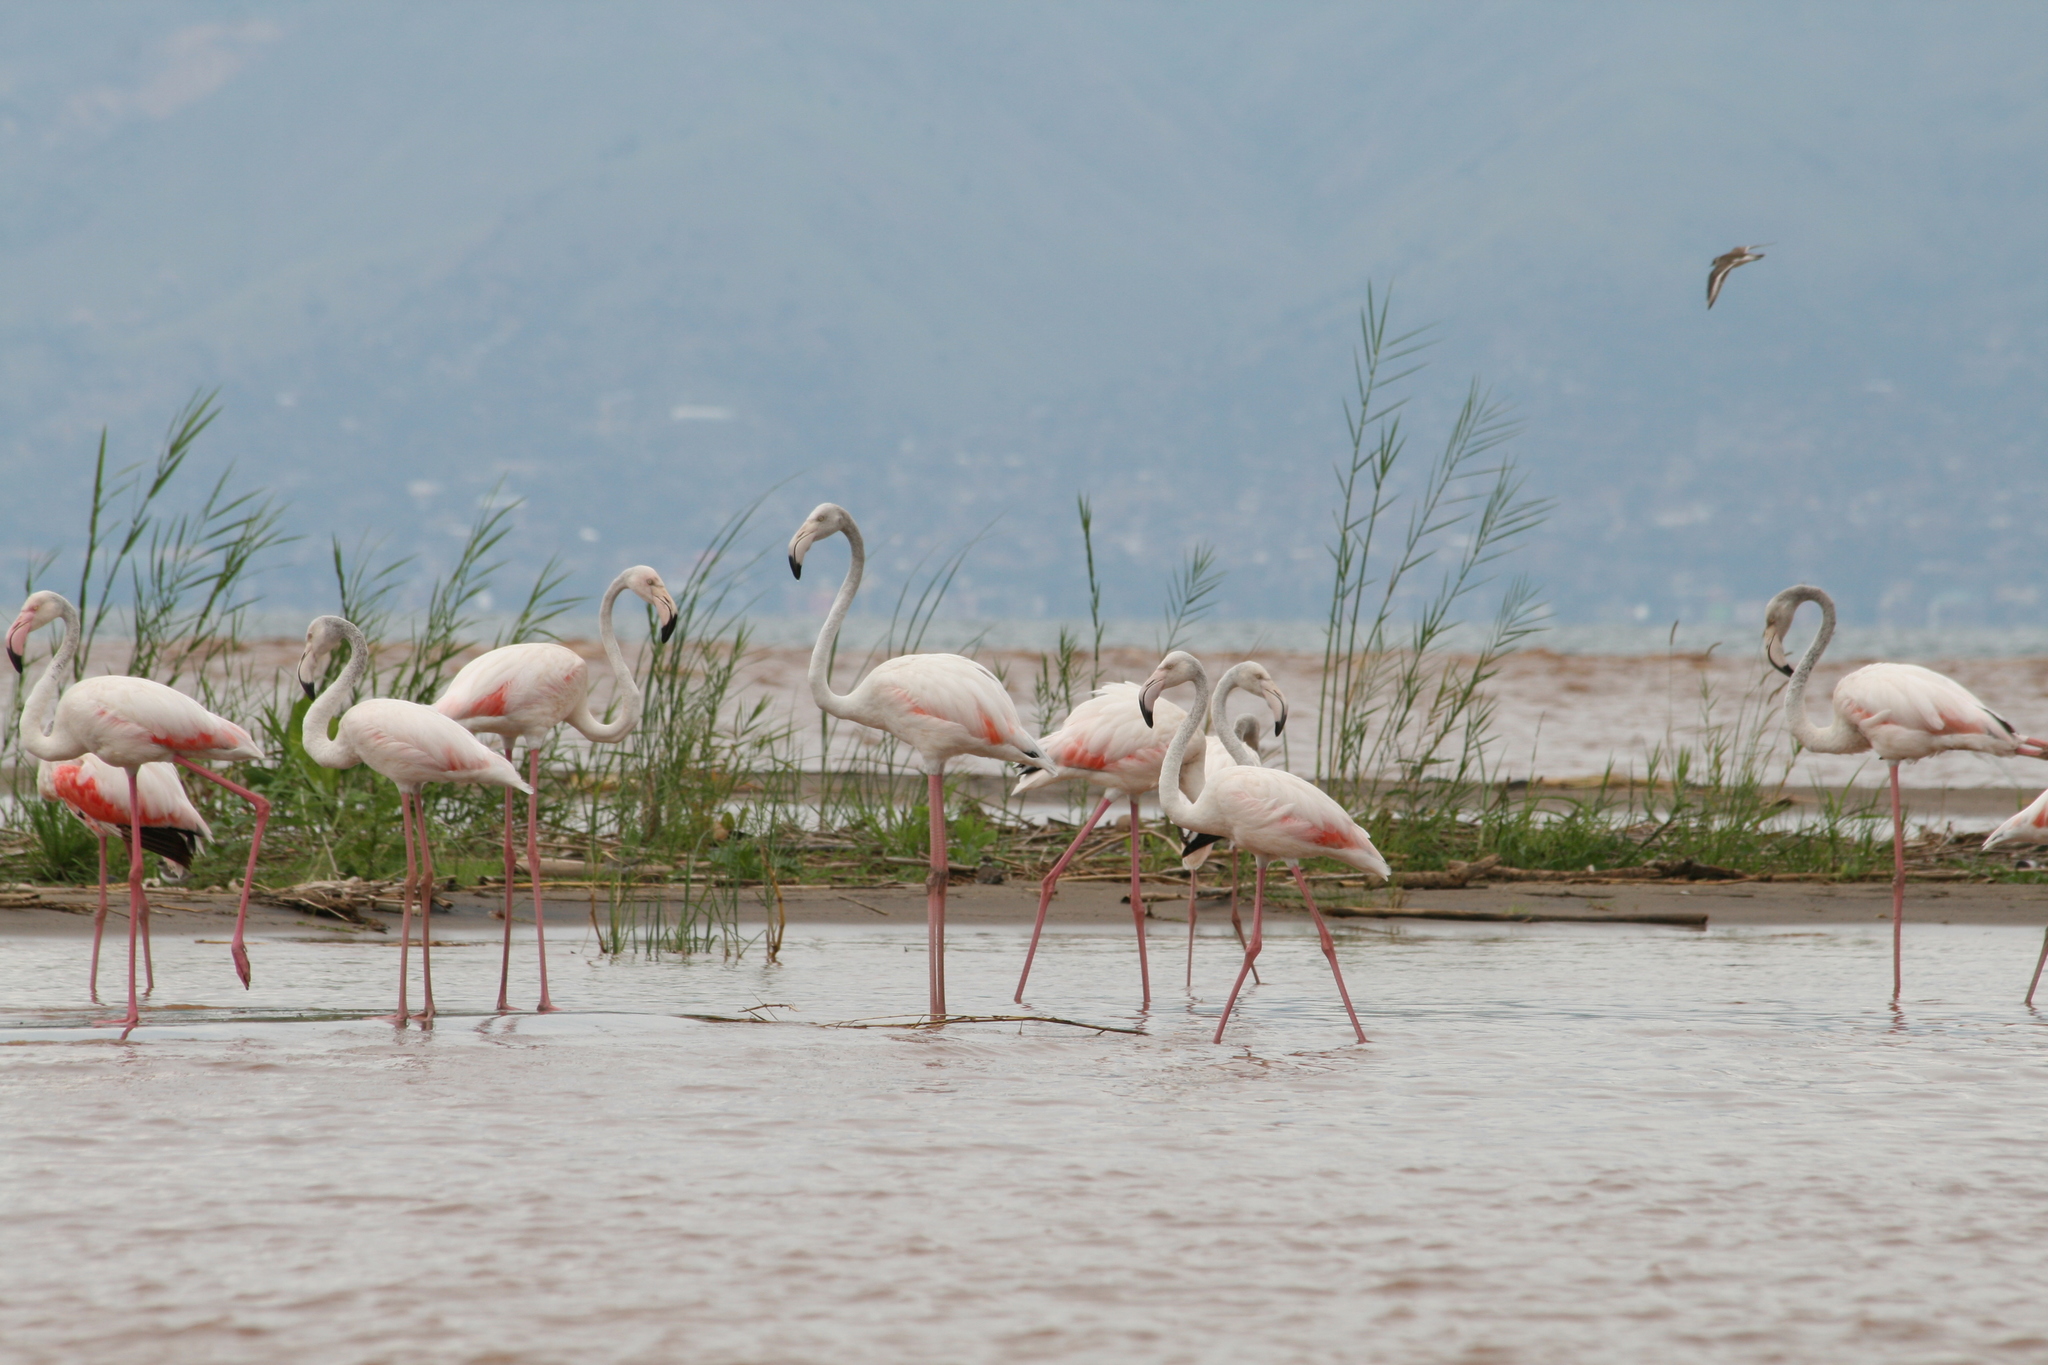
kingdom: Animalia
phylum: Chordata
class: Aves
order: Phoenicopteriformes
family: Phoenicopteridae
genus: Phoenicopterus
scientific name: Phoenicopterus roseus
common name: Greater flamingo
